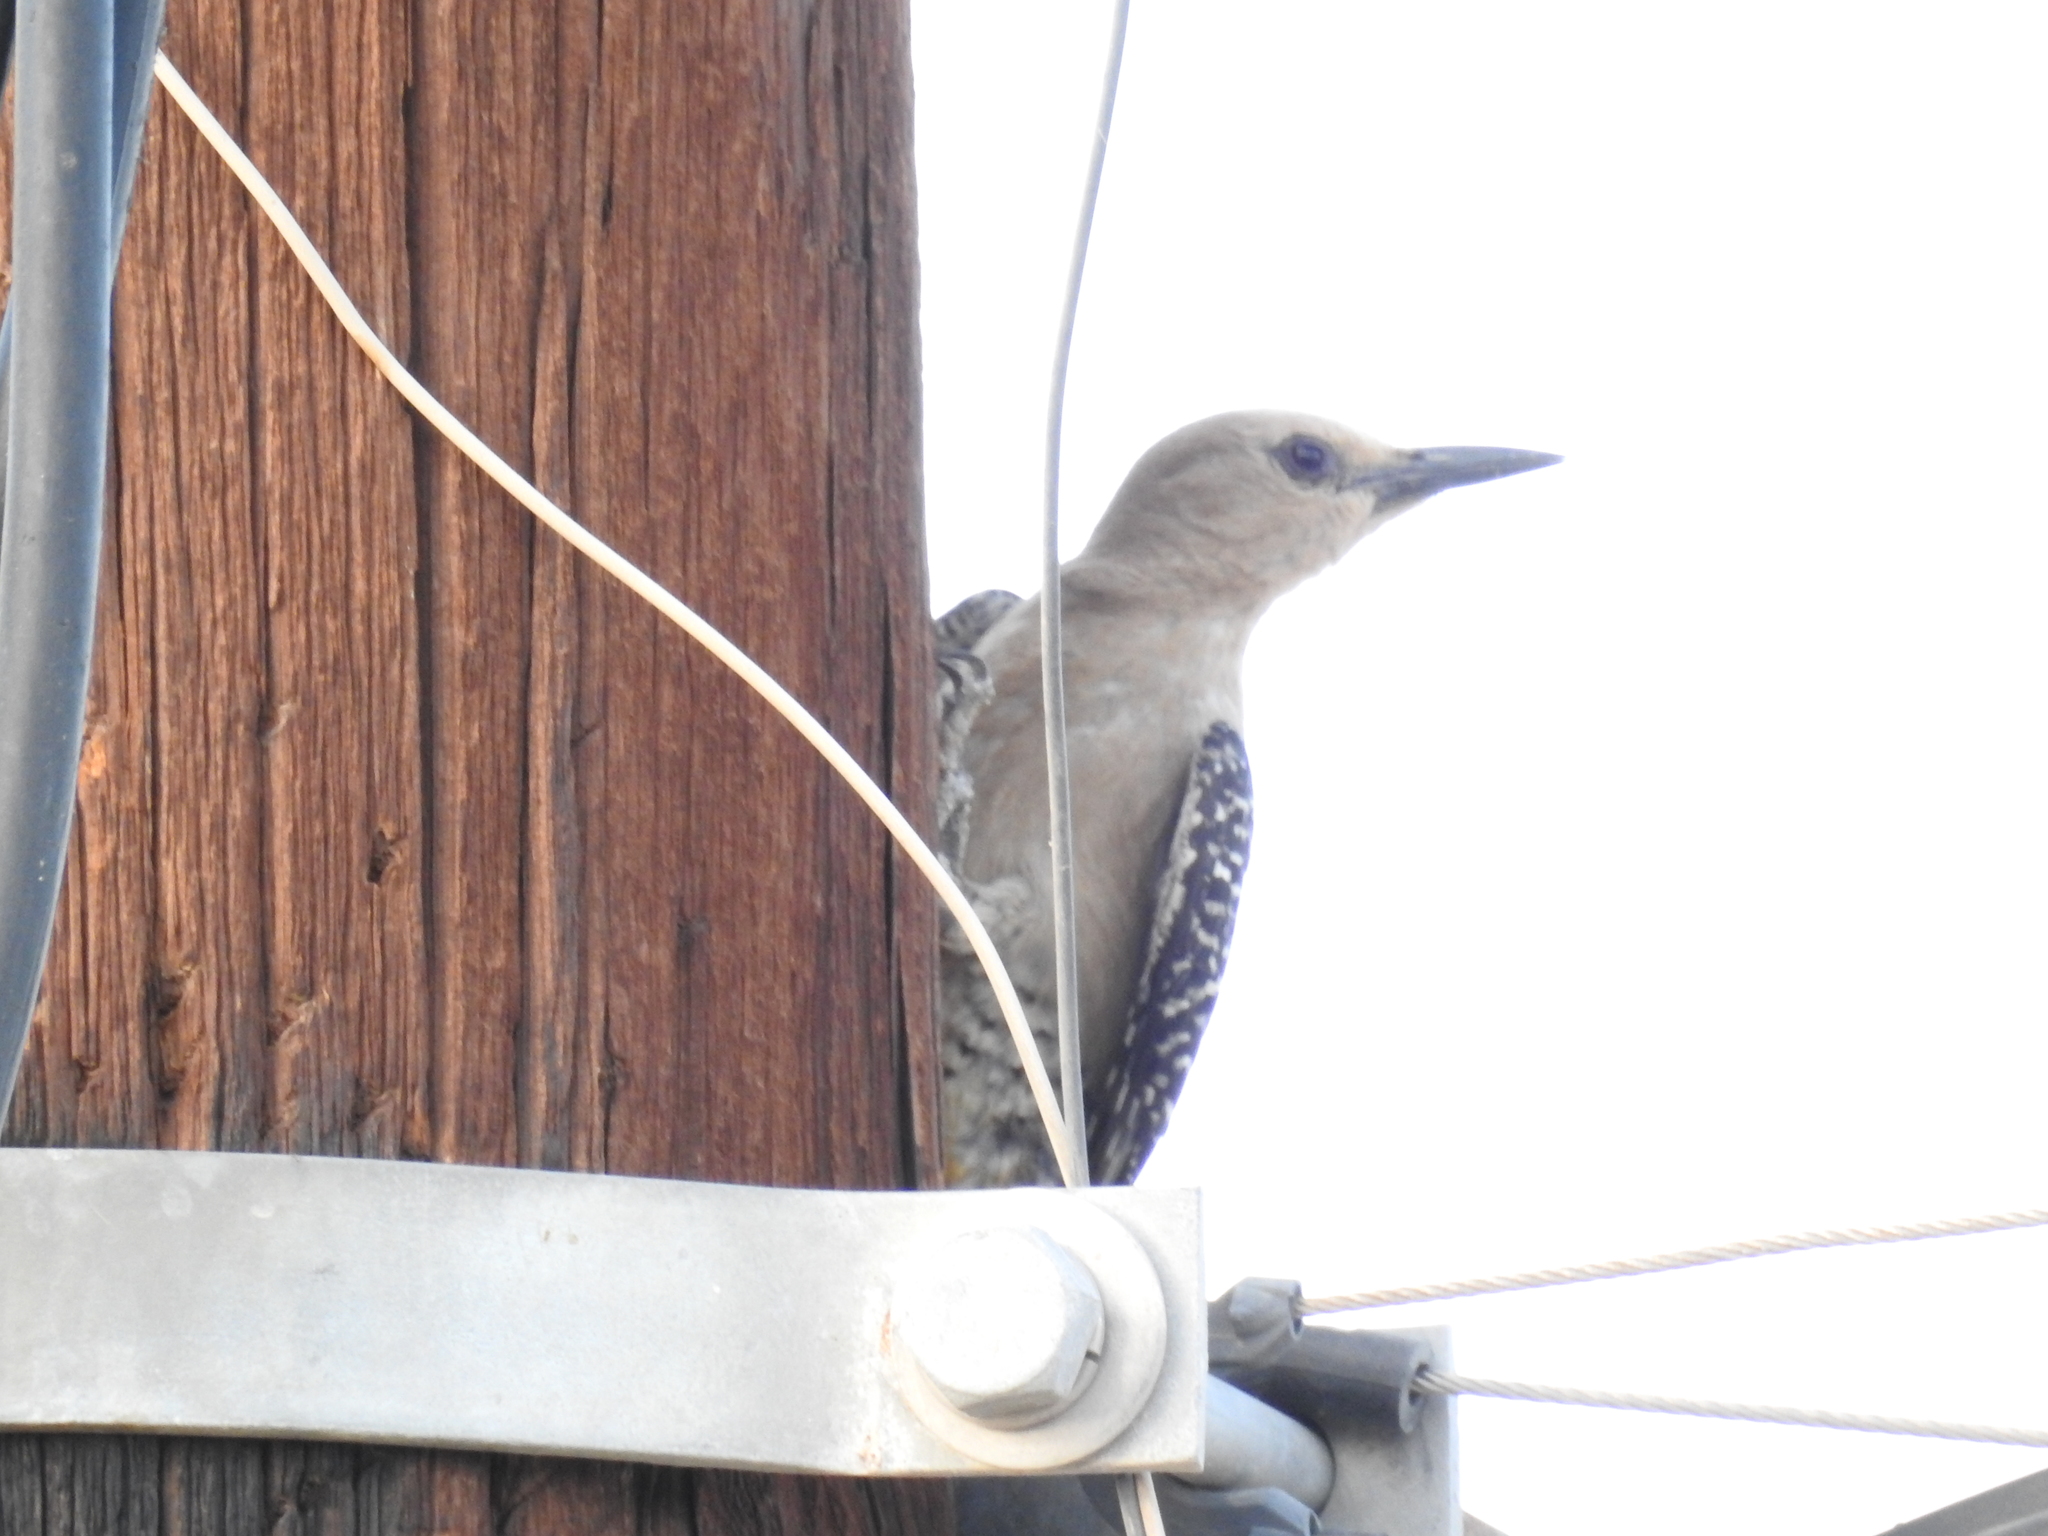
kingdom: Animalia
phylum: Chordata
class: Aves
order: Piciformes
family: Picidae
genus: Melanerpes
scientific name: Melanerpes uropygialis
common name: Gila woodpecker
